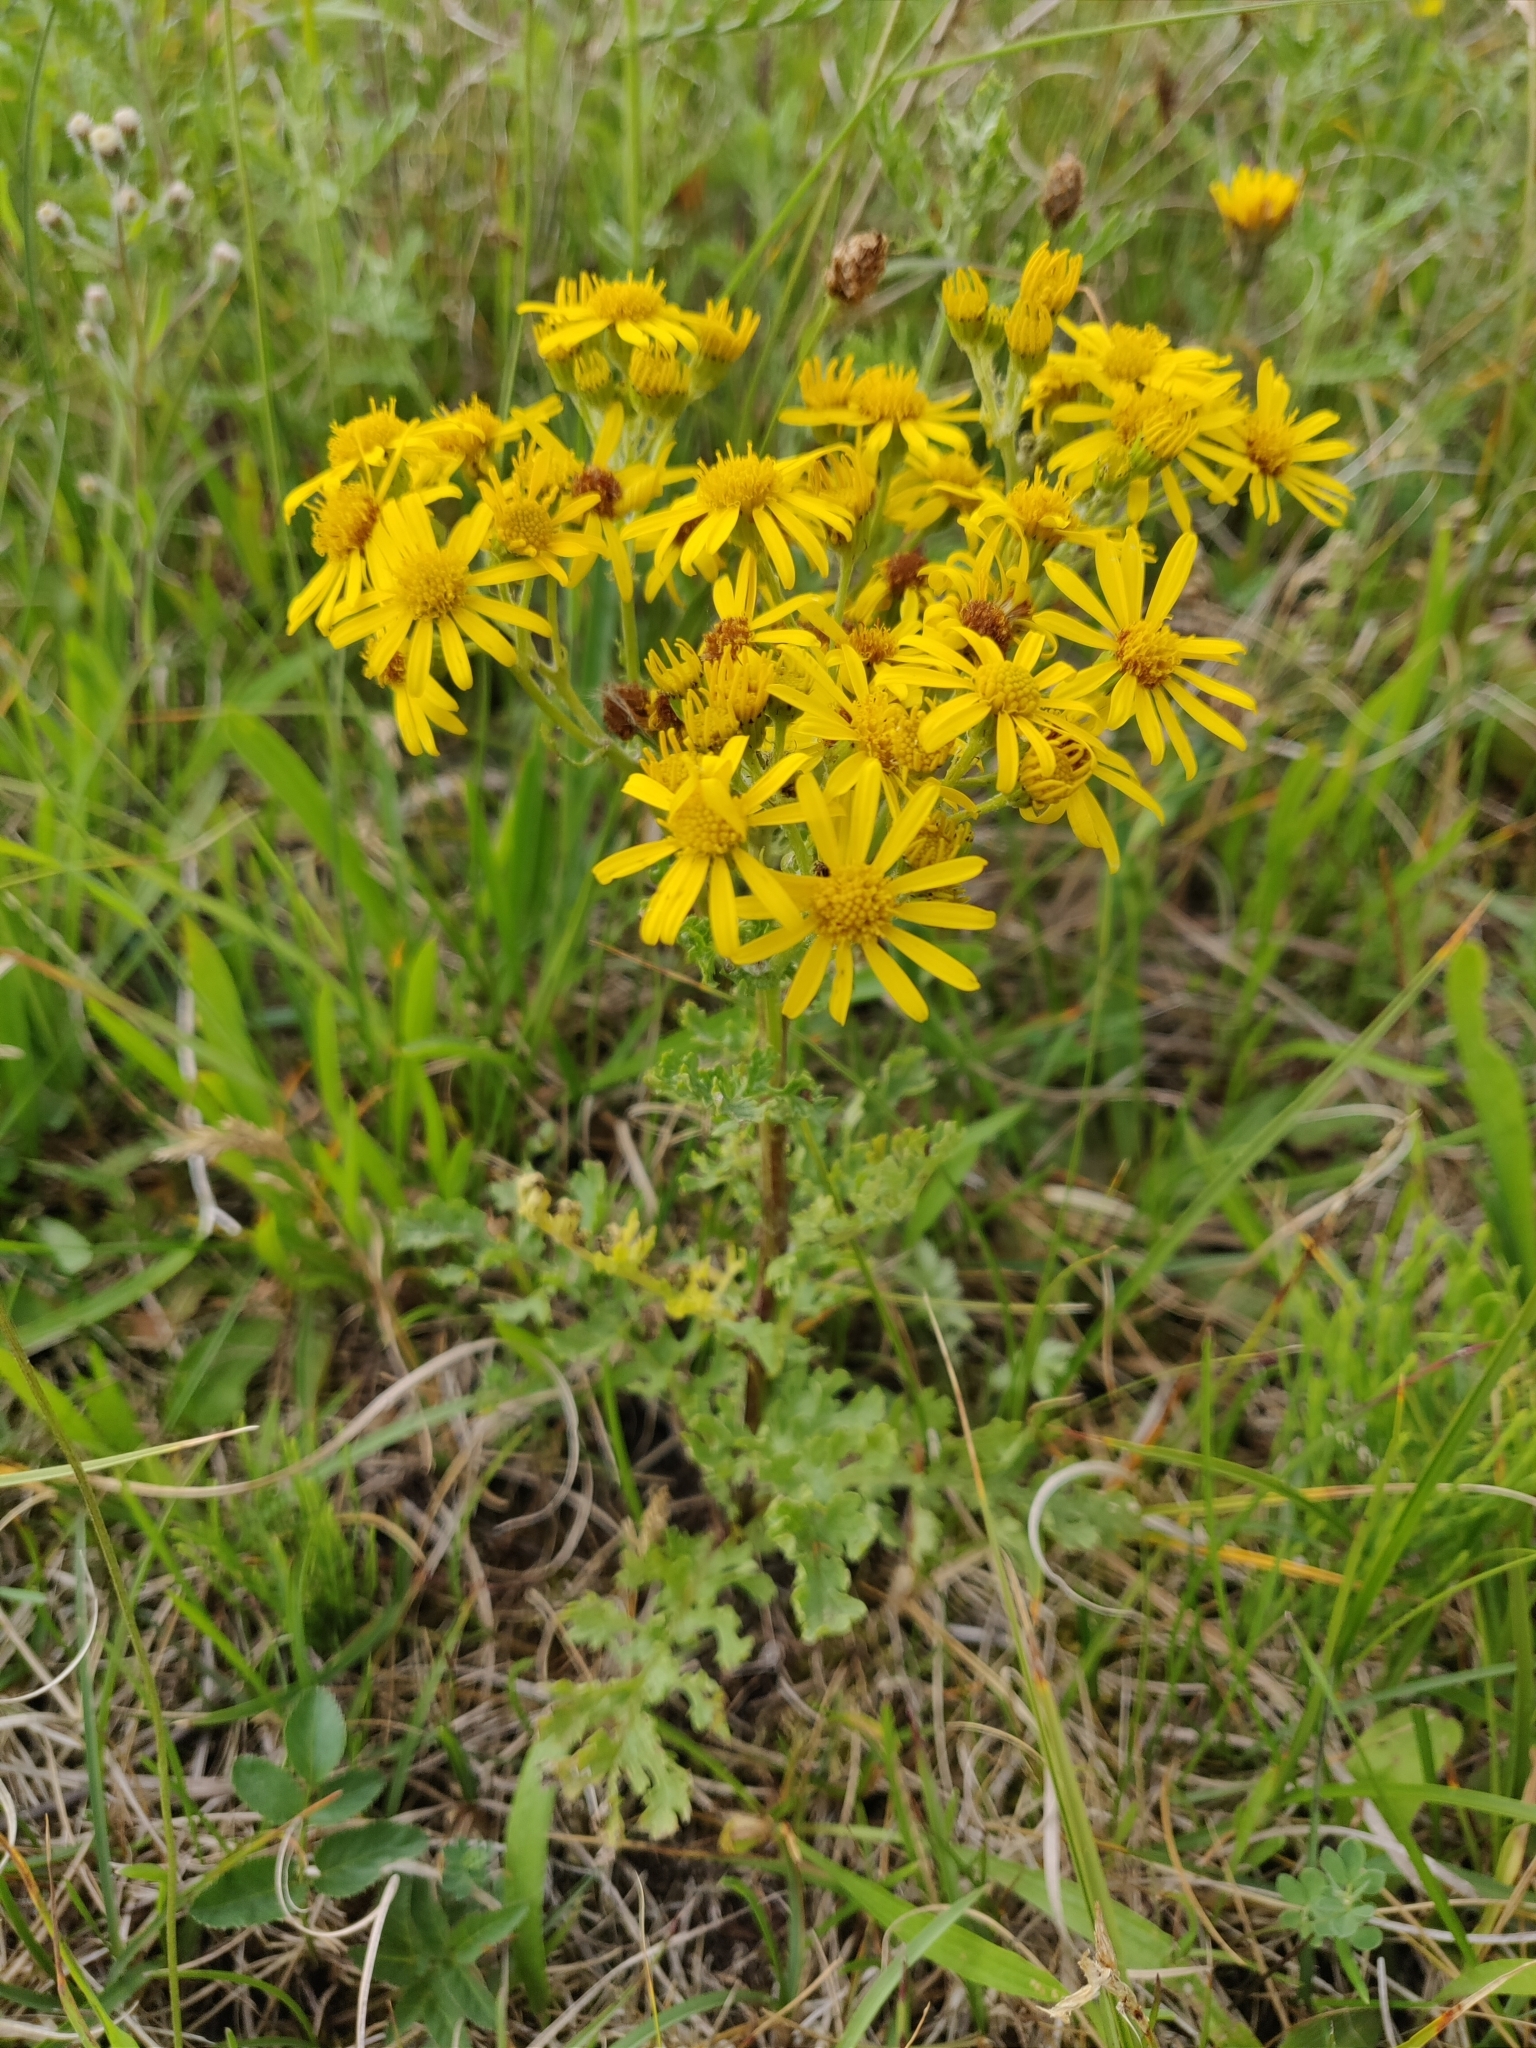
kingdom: Plantae
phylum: Tracheophyta
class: Magnoliopsida
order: Asterales
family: Asteraceae
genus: Jacobaea
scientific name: Jacobaea vulgaris
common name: Stinking willie
